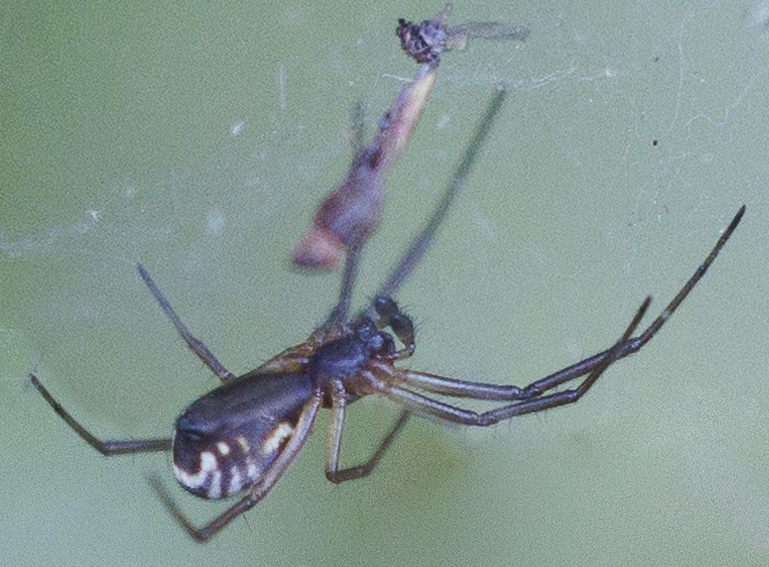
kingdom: Animalia
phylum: Arthropoda
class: Arachnida
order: Araneae
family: Linyphiidae
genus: Frontinella
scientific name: Frontinella pyramitela
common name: Bowl-and-doily spider
